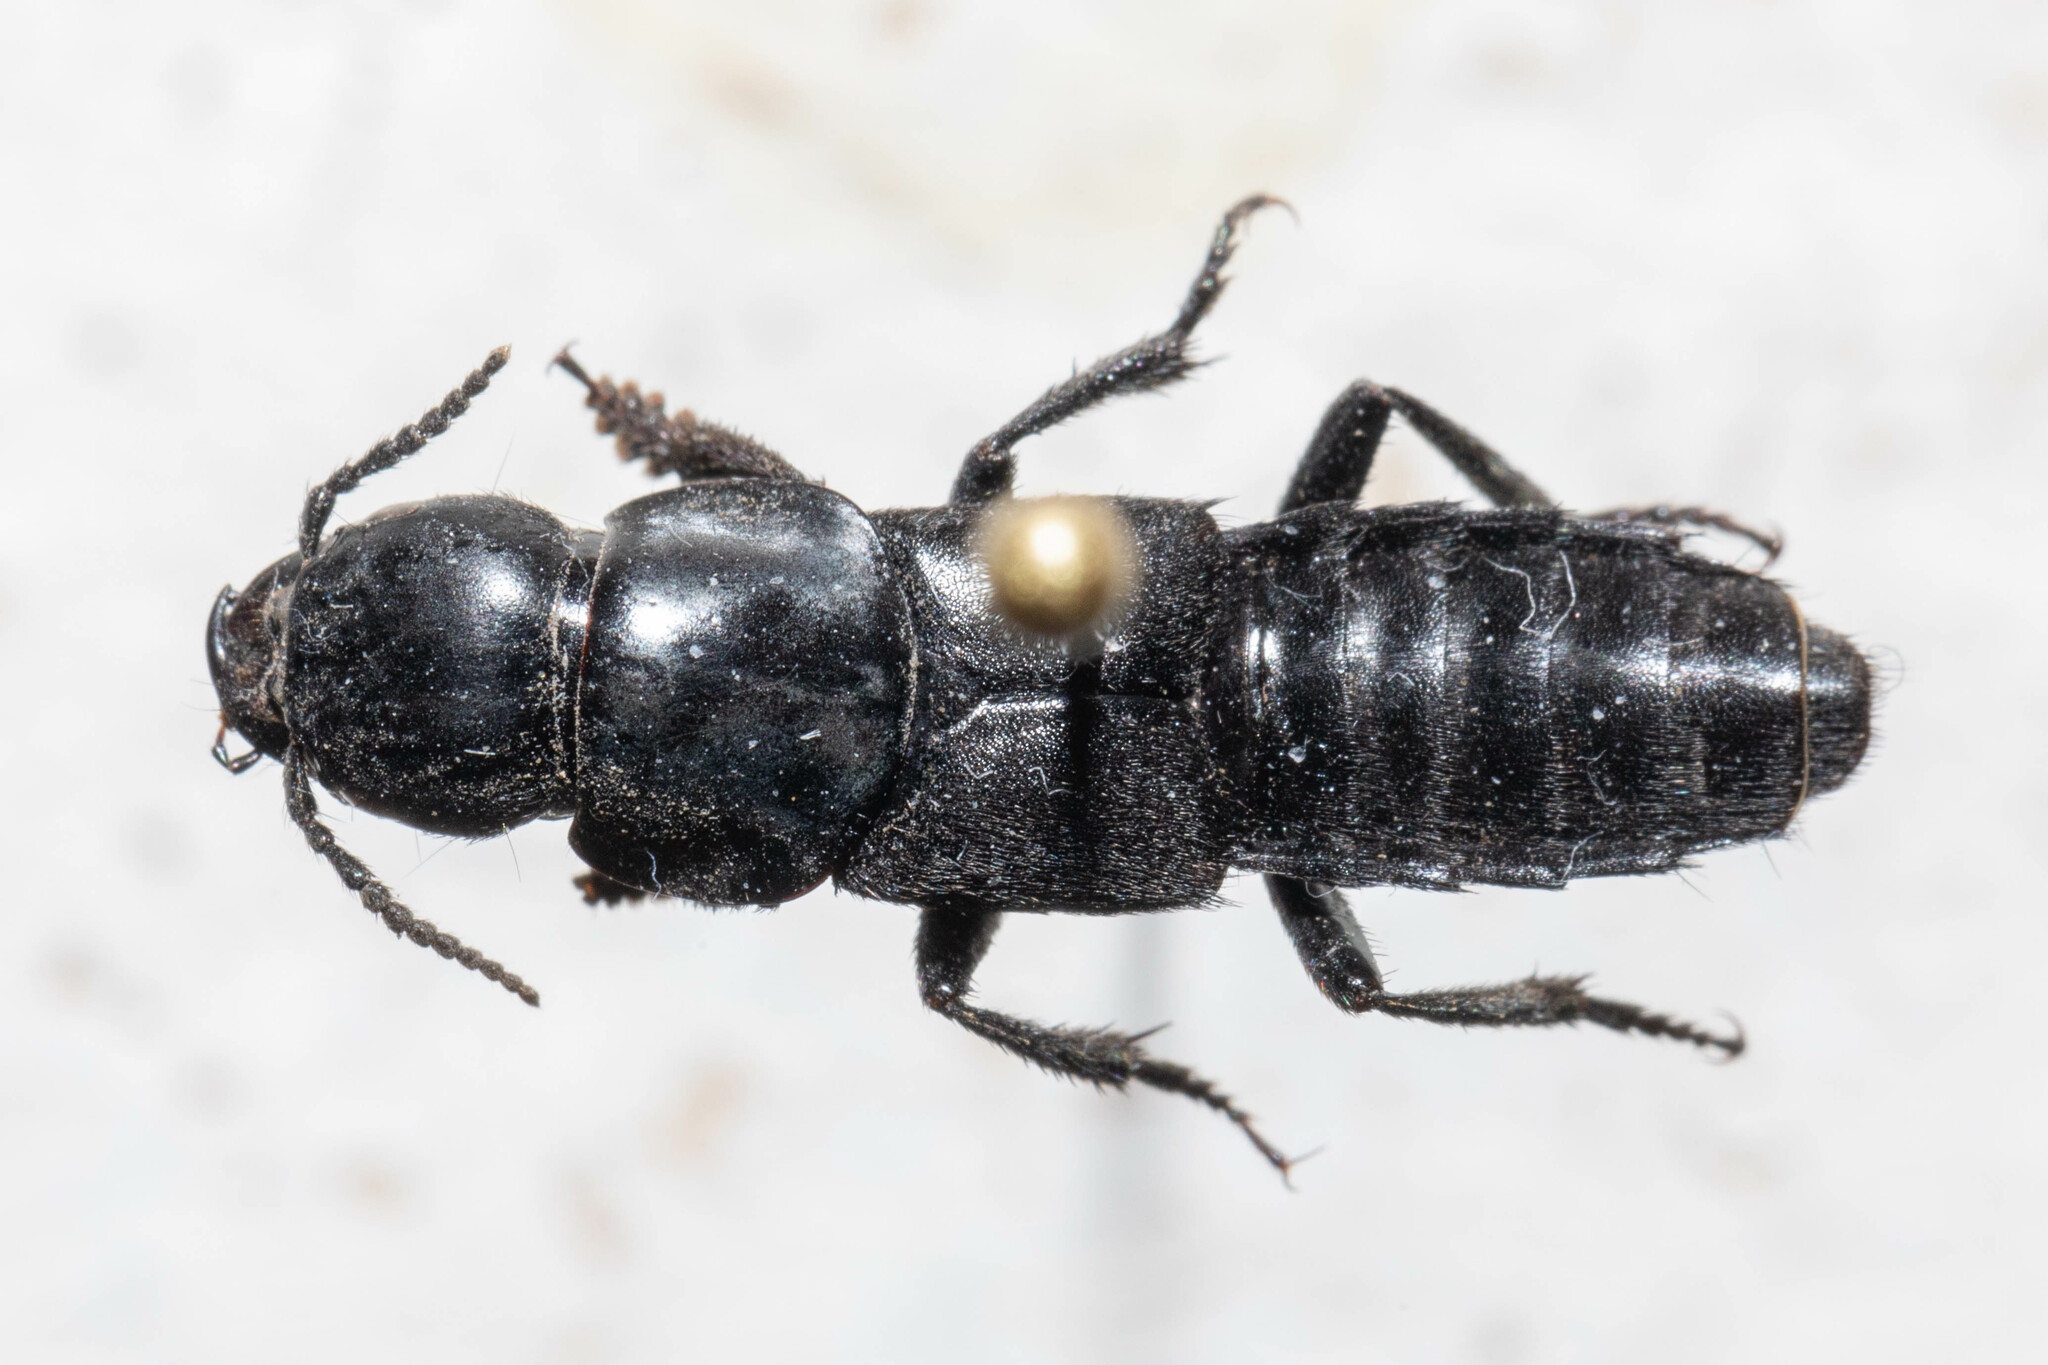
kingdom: Animalia
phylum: Arthropoda
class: Insecta
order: Coleoptera
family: Staphylinidae
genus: Quedius
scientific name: Quedius explanatus
